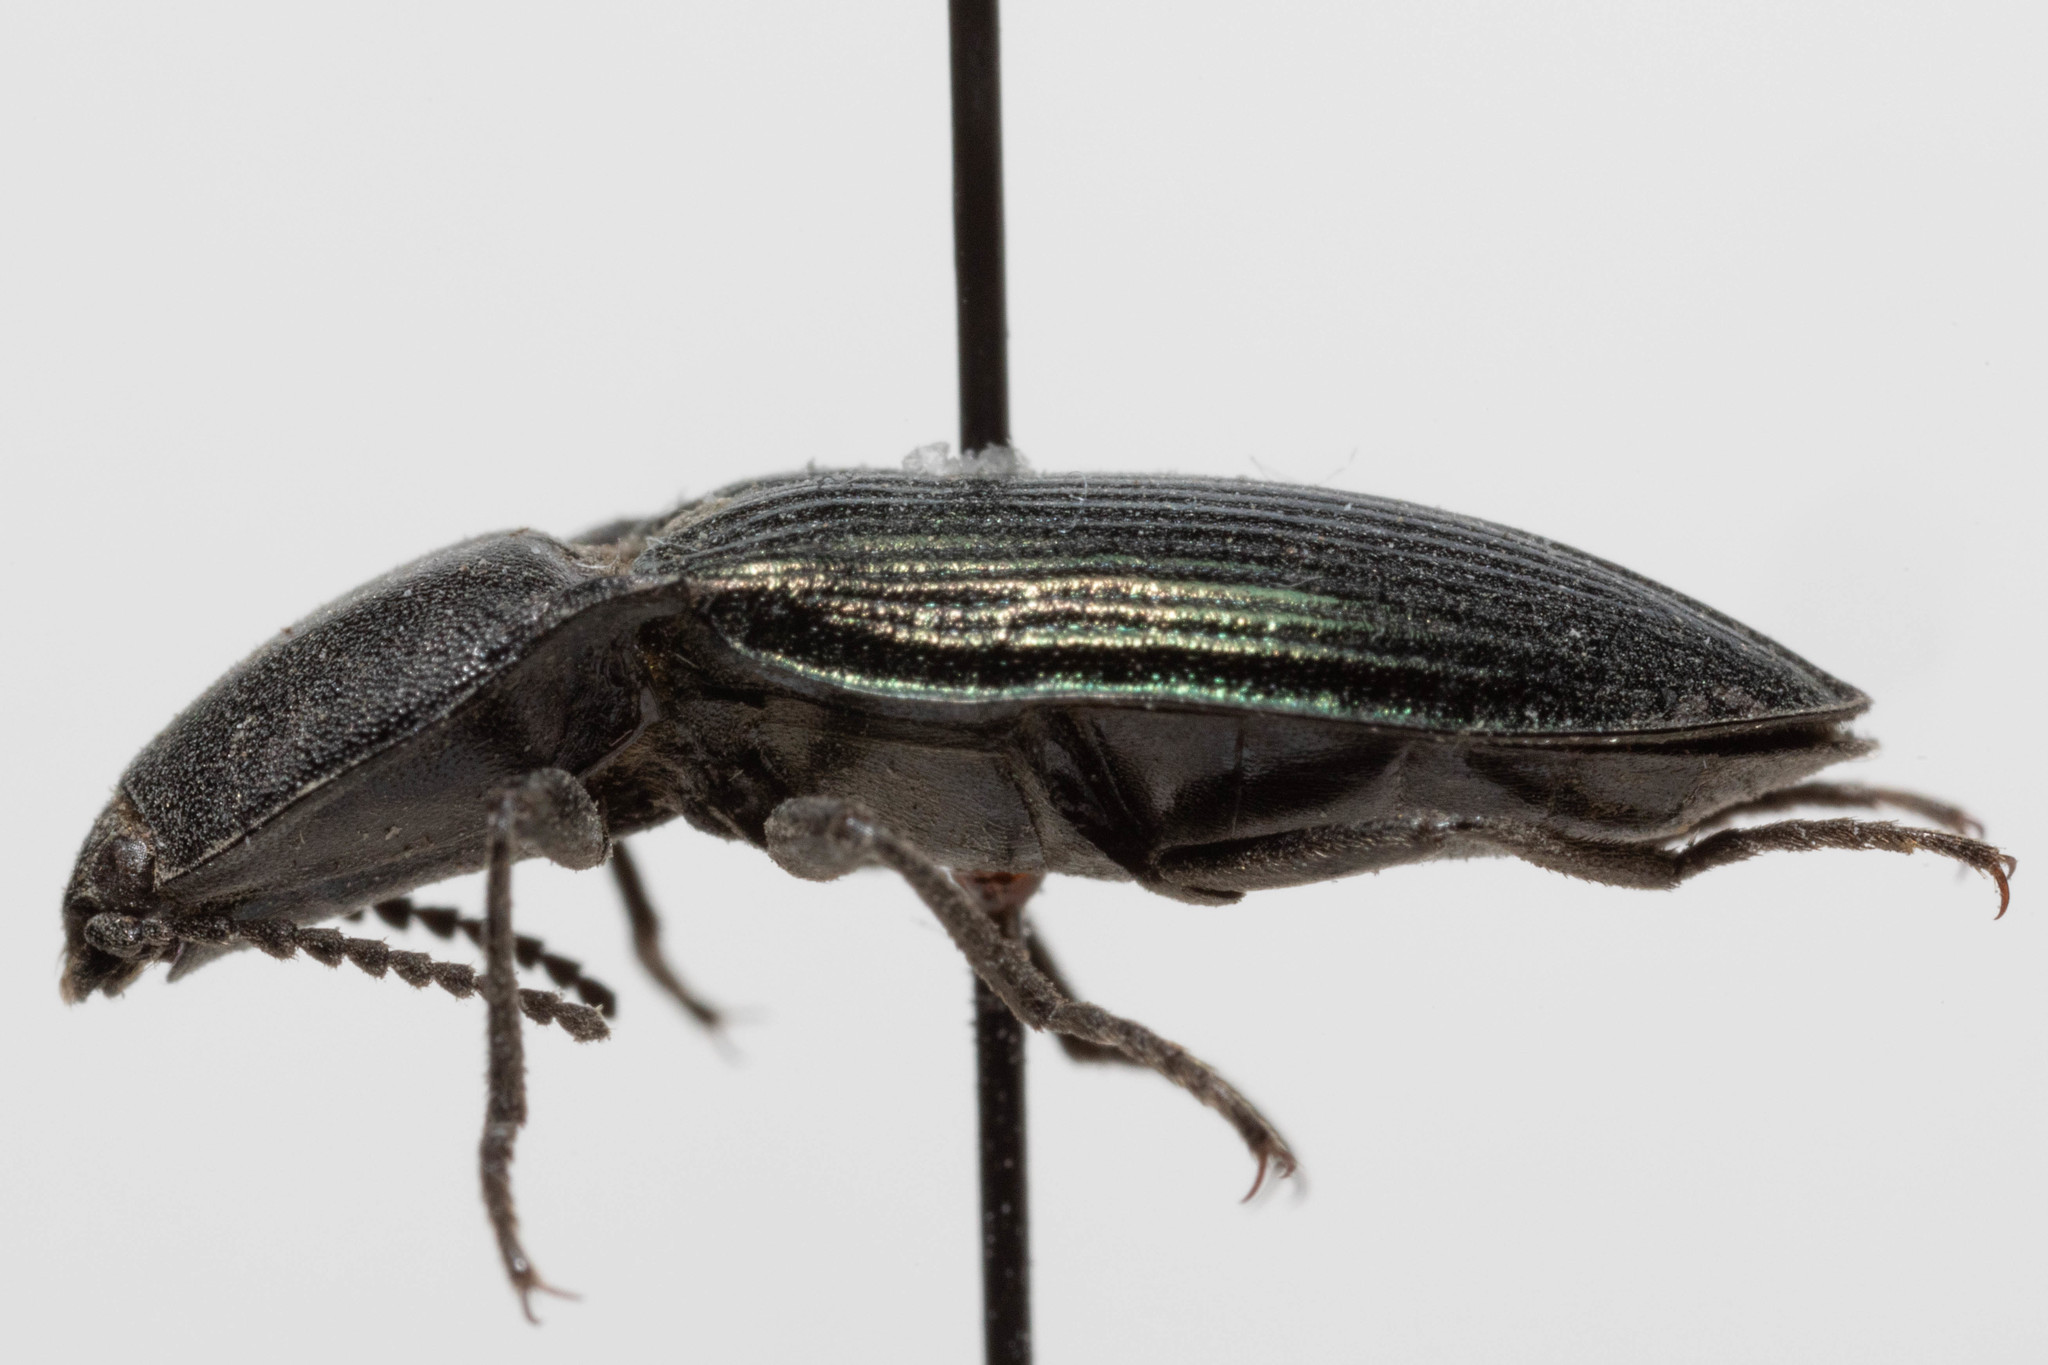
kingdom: Animalia
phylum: Arthropoda
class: Insecta
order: Coleoptera
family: Elateridae
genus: Selatosomus
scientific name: Selatosomus aeripennis
